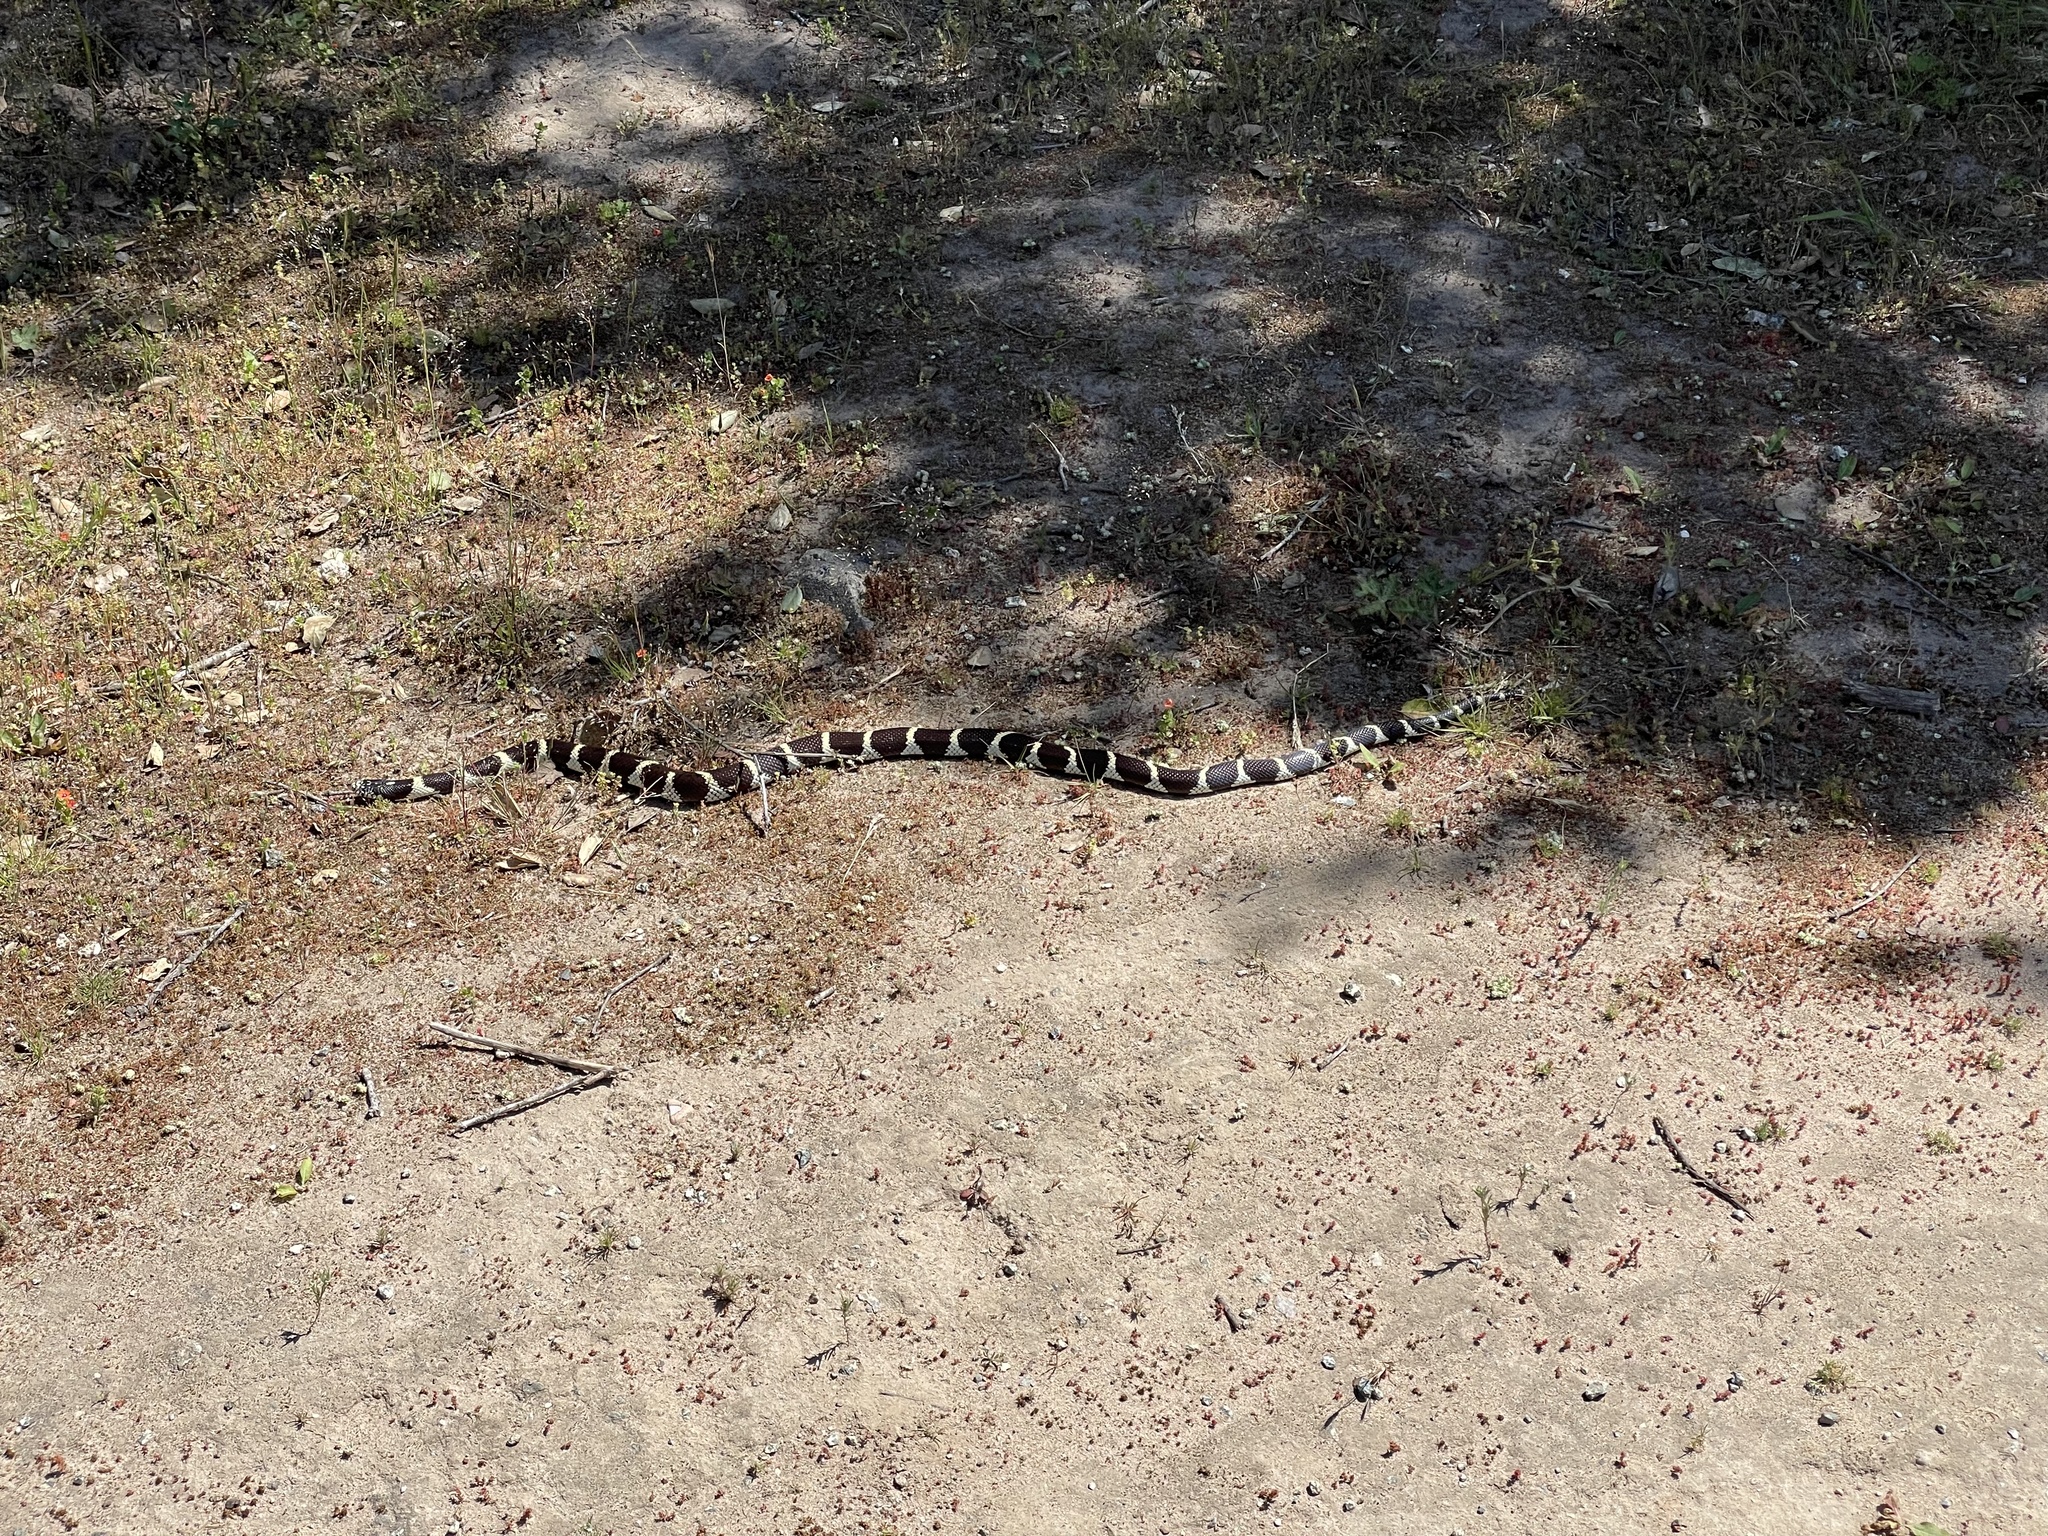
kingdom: Animalia
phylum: Chordata
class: Squamata
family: Colubridae
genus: Lampropeltis
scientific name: Lampropeltis californiae
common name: California kingsnake
